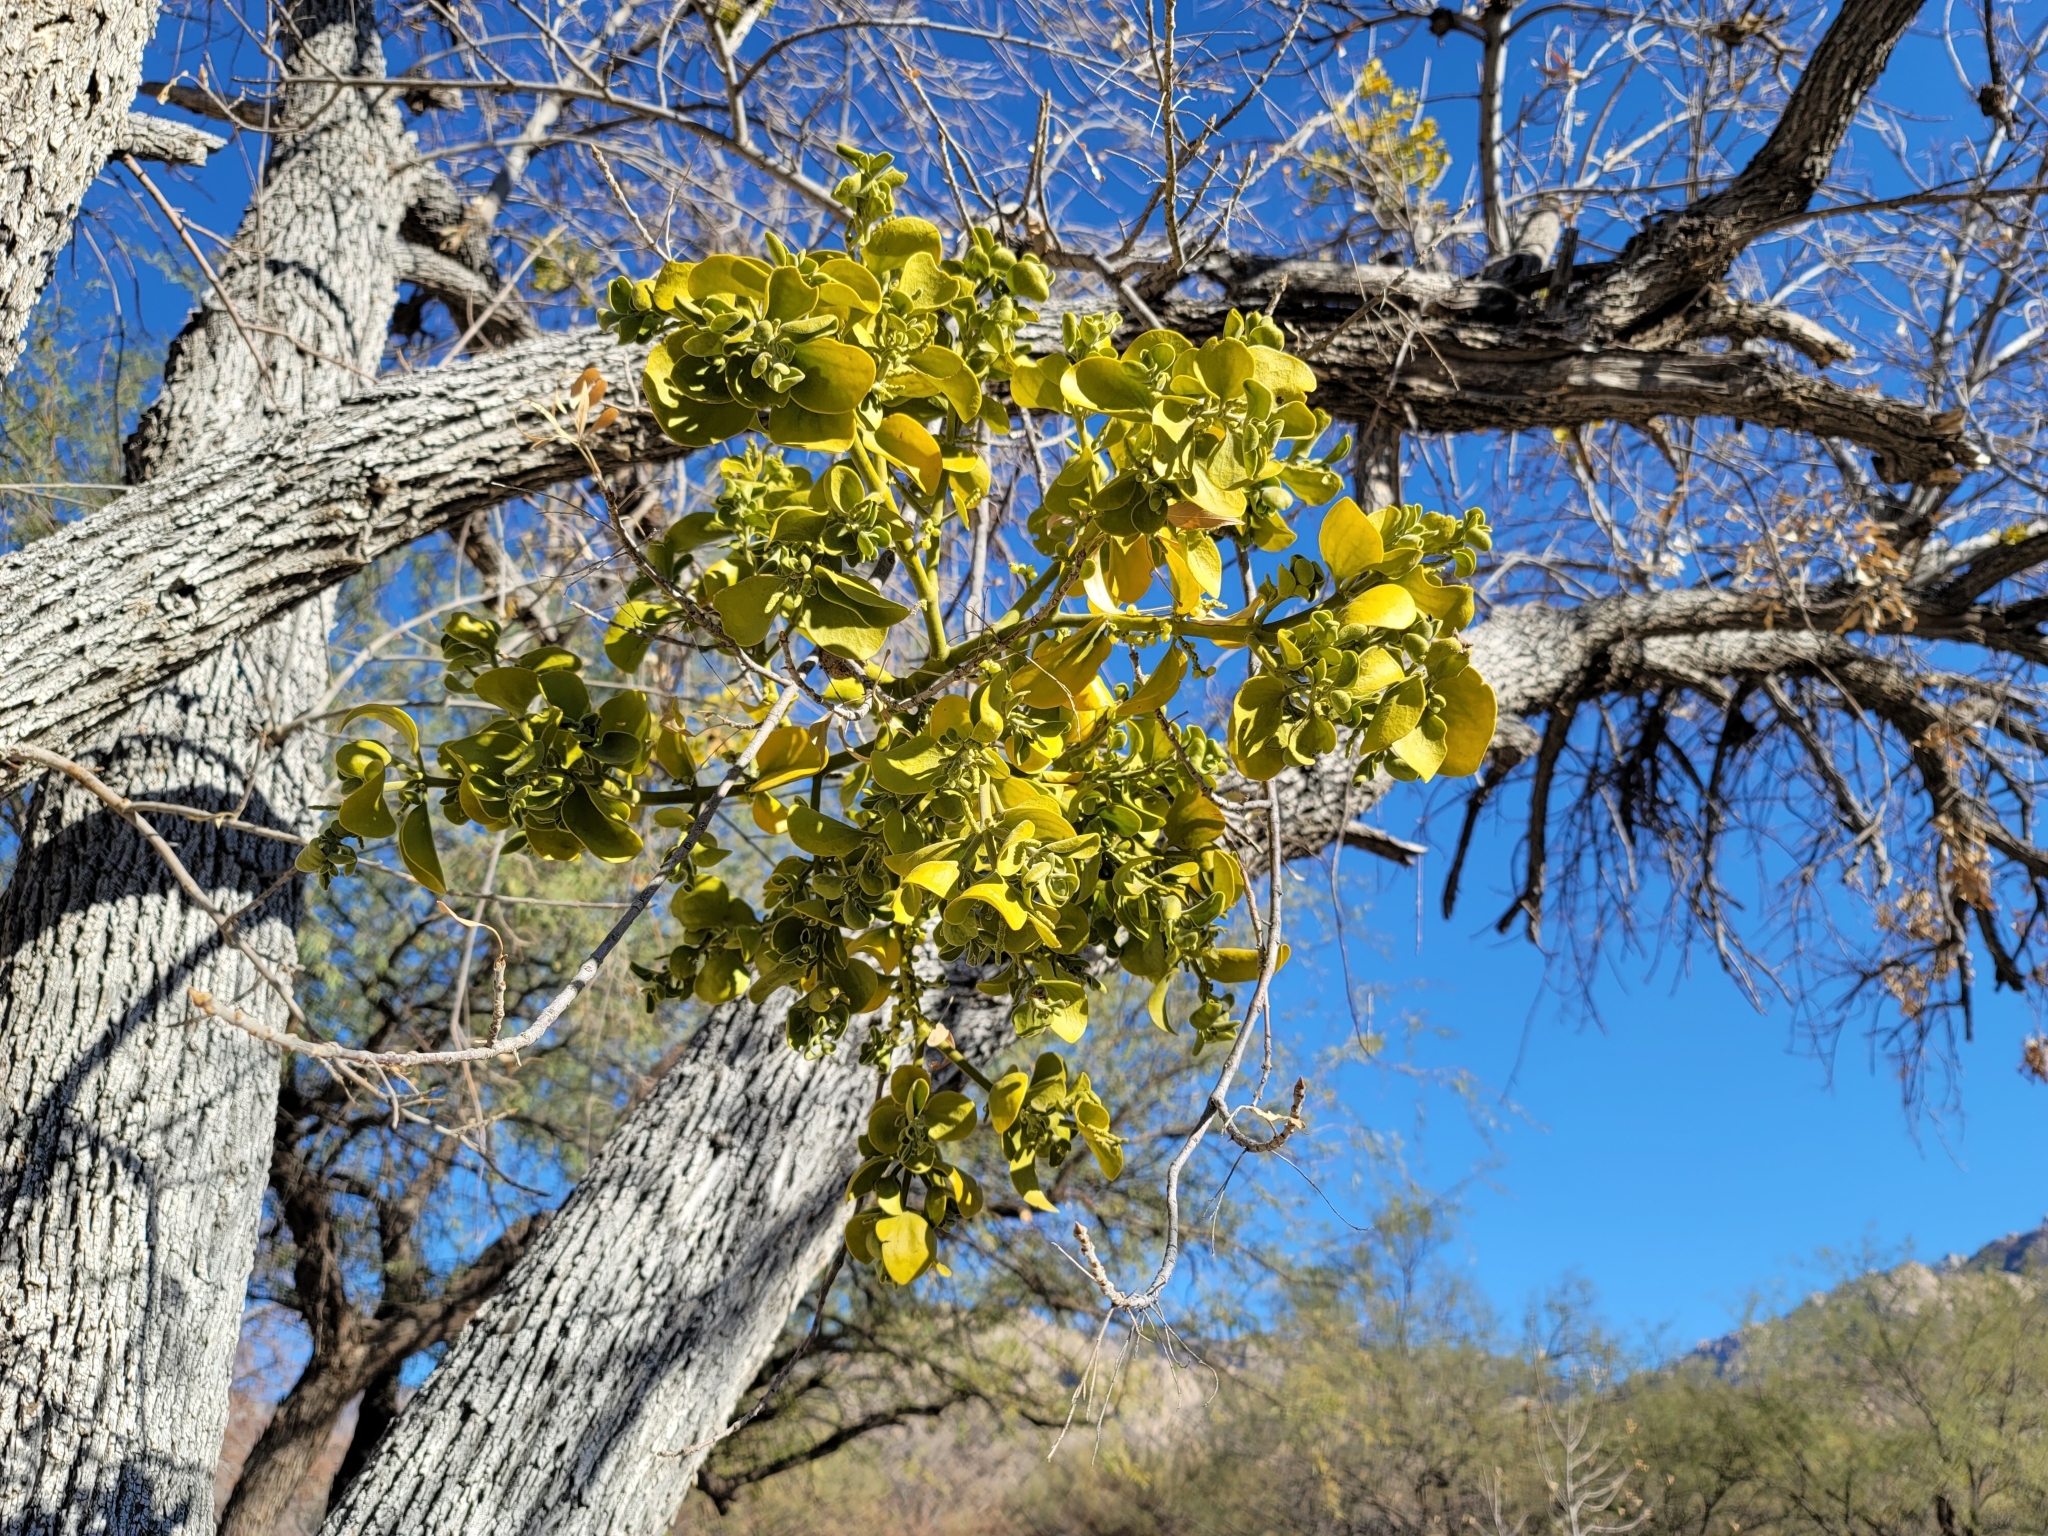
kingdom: Plantae
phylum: Tracheophyta
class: Magnoliopsida
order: Santalales
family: Viscaceae
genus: Phoradendron
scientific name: Phoradendron
